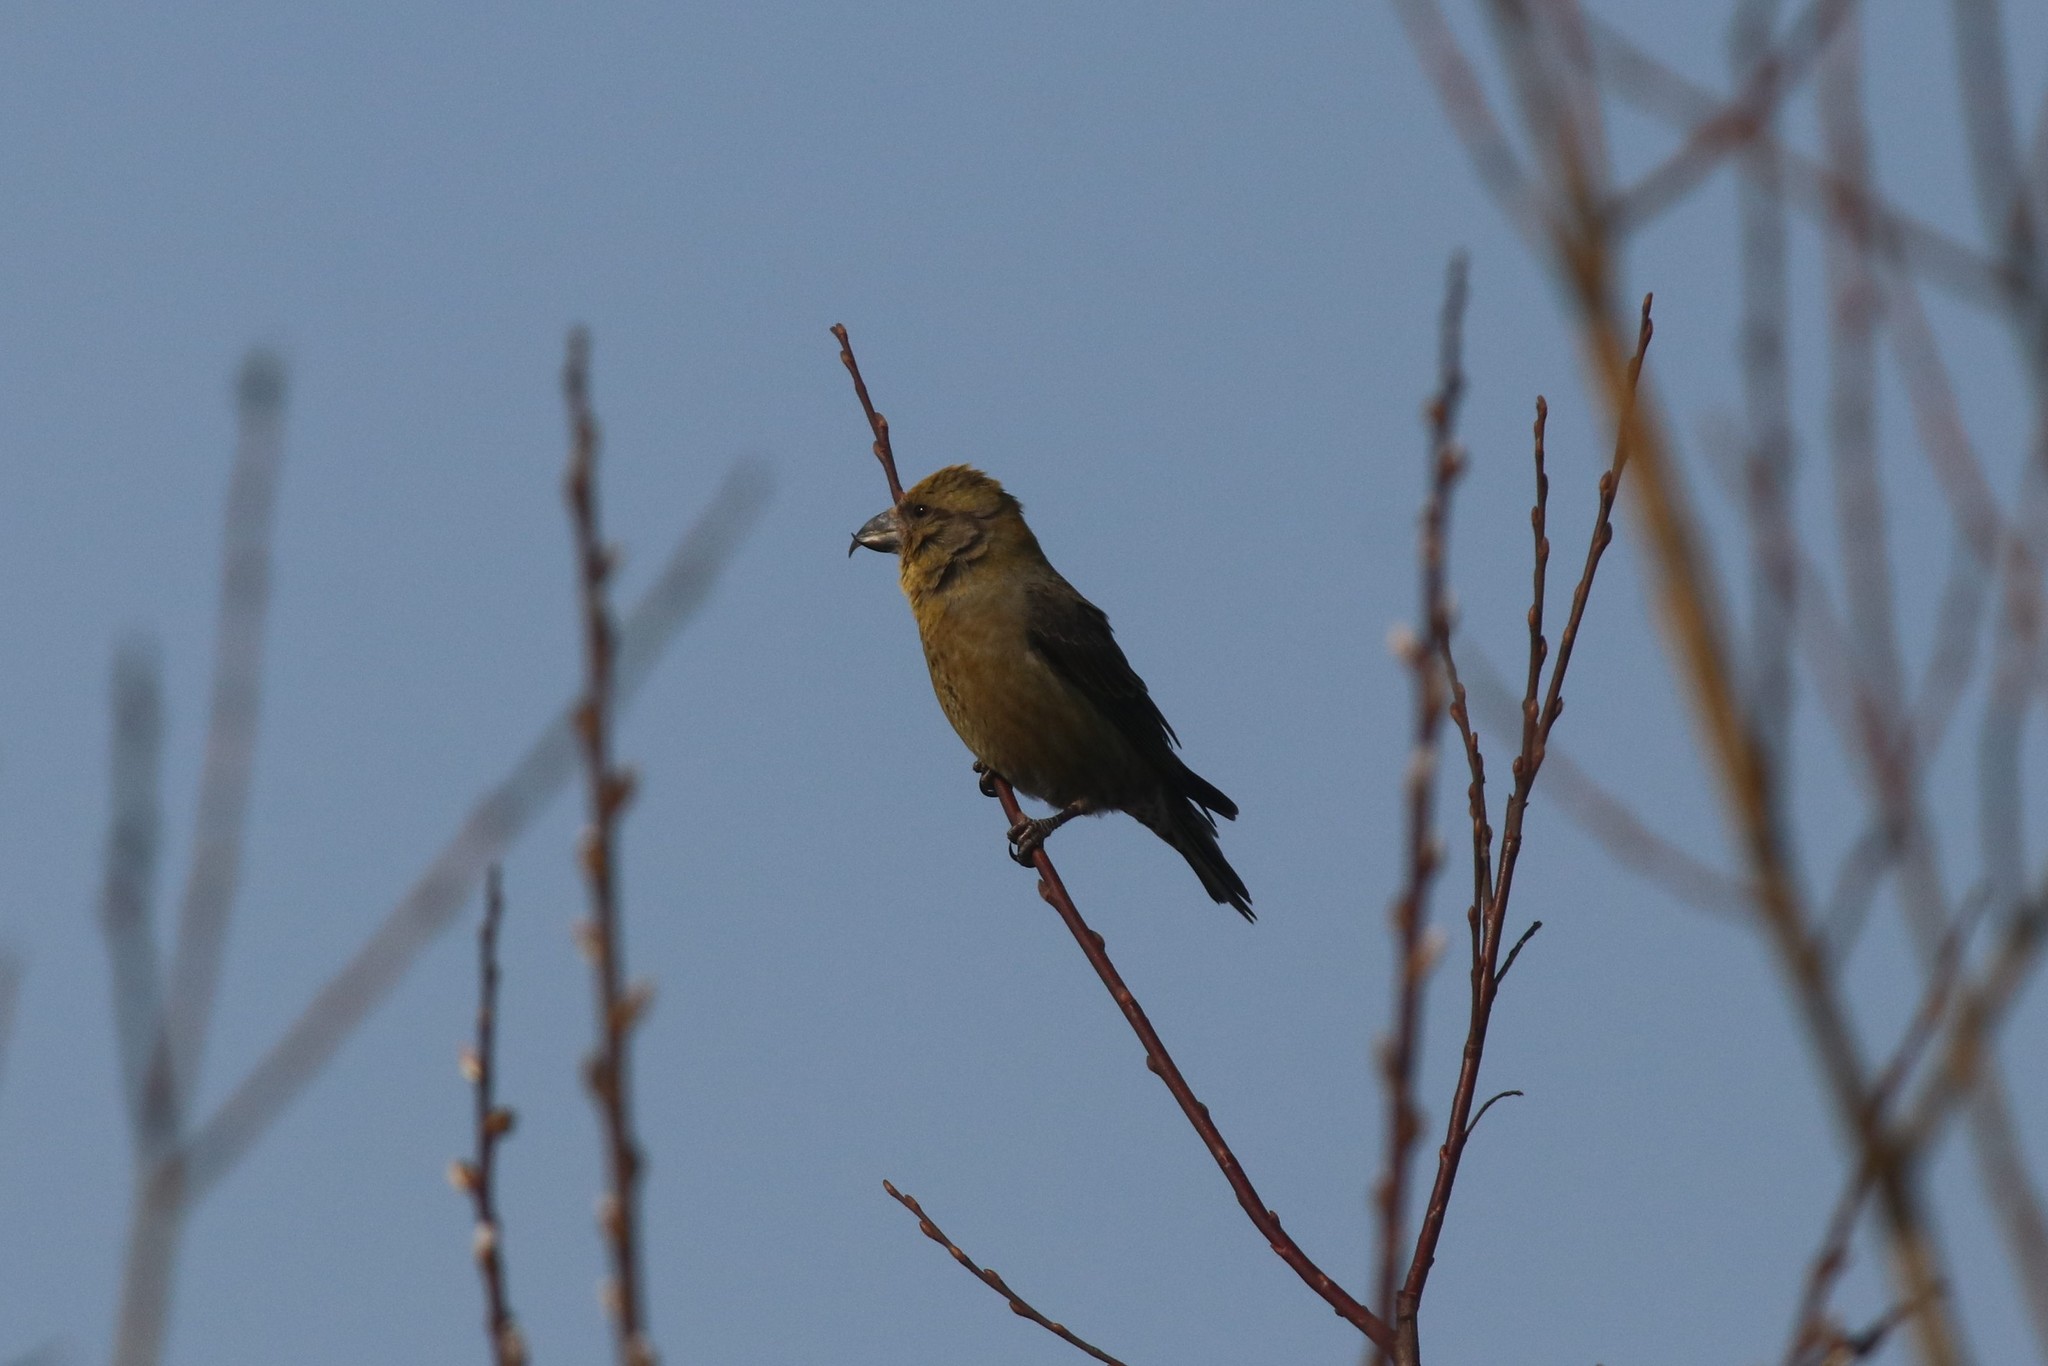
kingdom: Animalia
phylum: Chordata
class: Aves
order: Passeriformes
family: Fringillidae
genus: Loxia
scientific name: Loxia curvirostra
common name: Red crossbill
